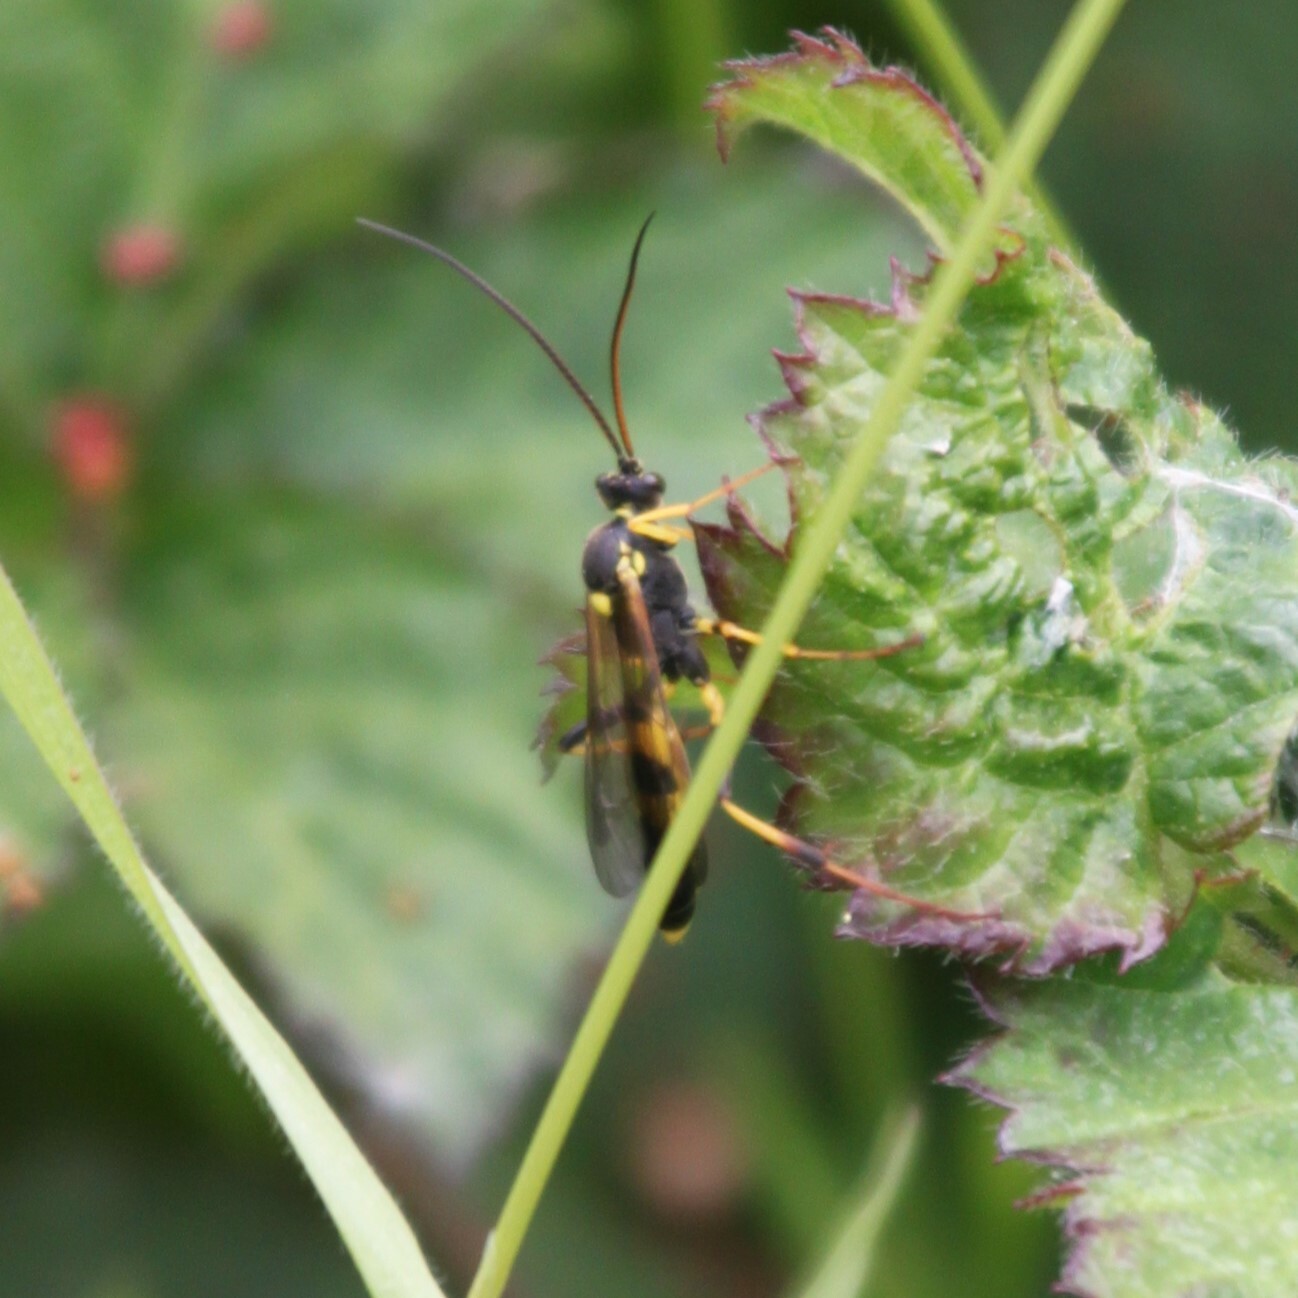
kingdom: Animalia
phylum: Arthropoda
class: Insecta
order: Hymenoptera
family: Ichneumonidae
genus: Amblyteles
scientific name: Amblyteles armatorius
